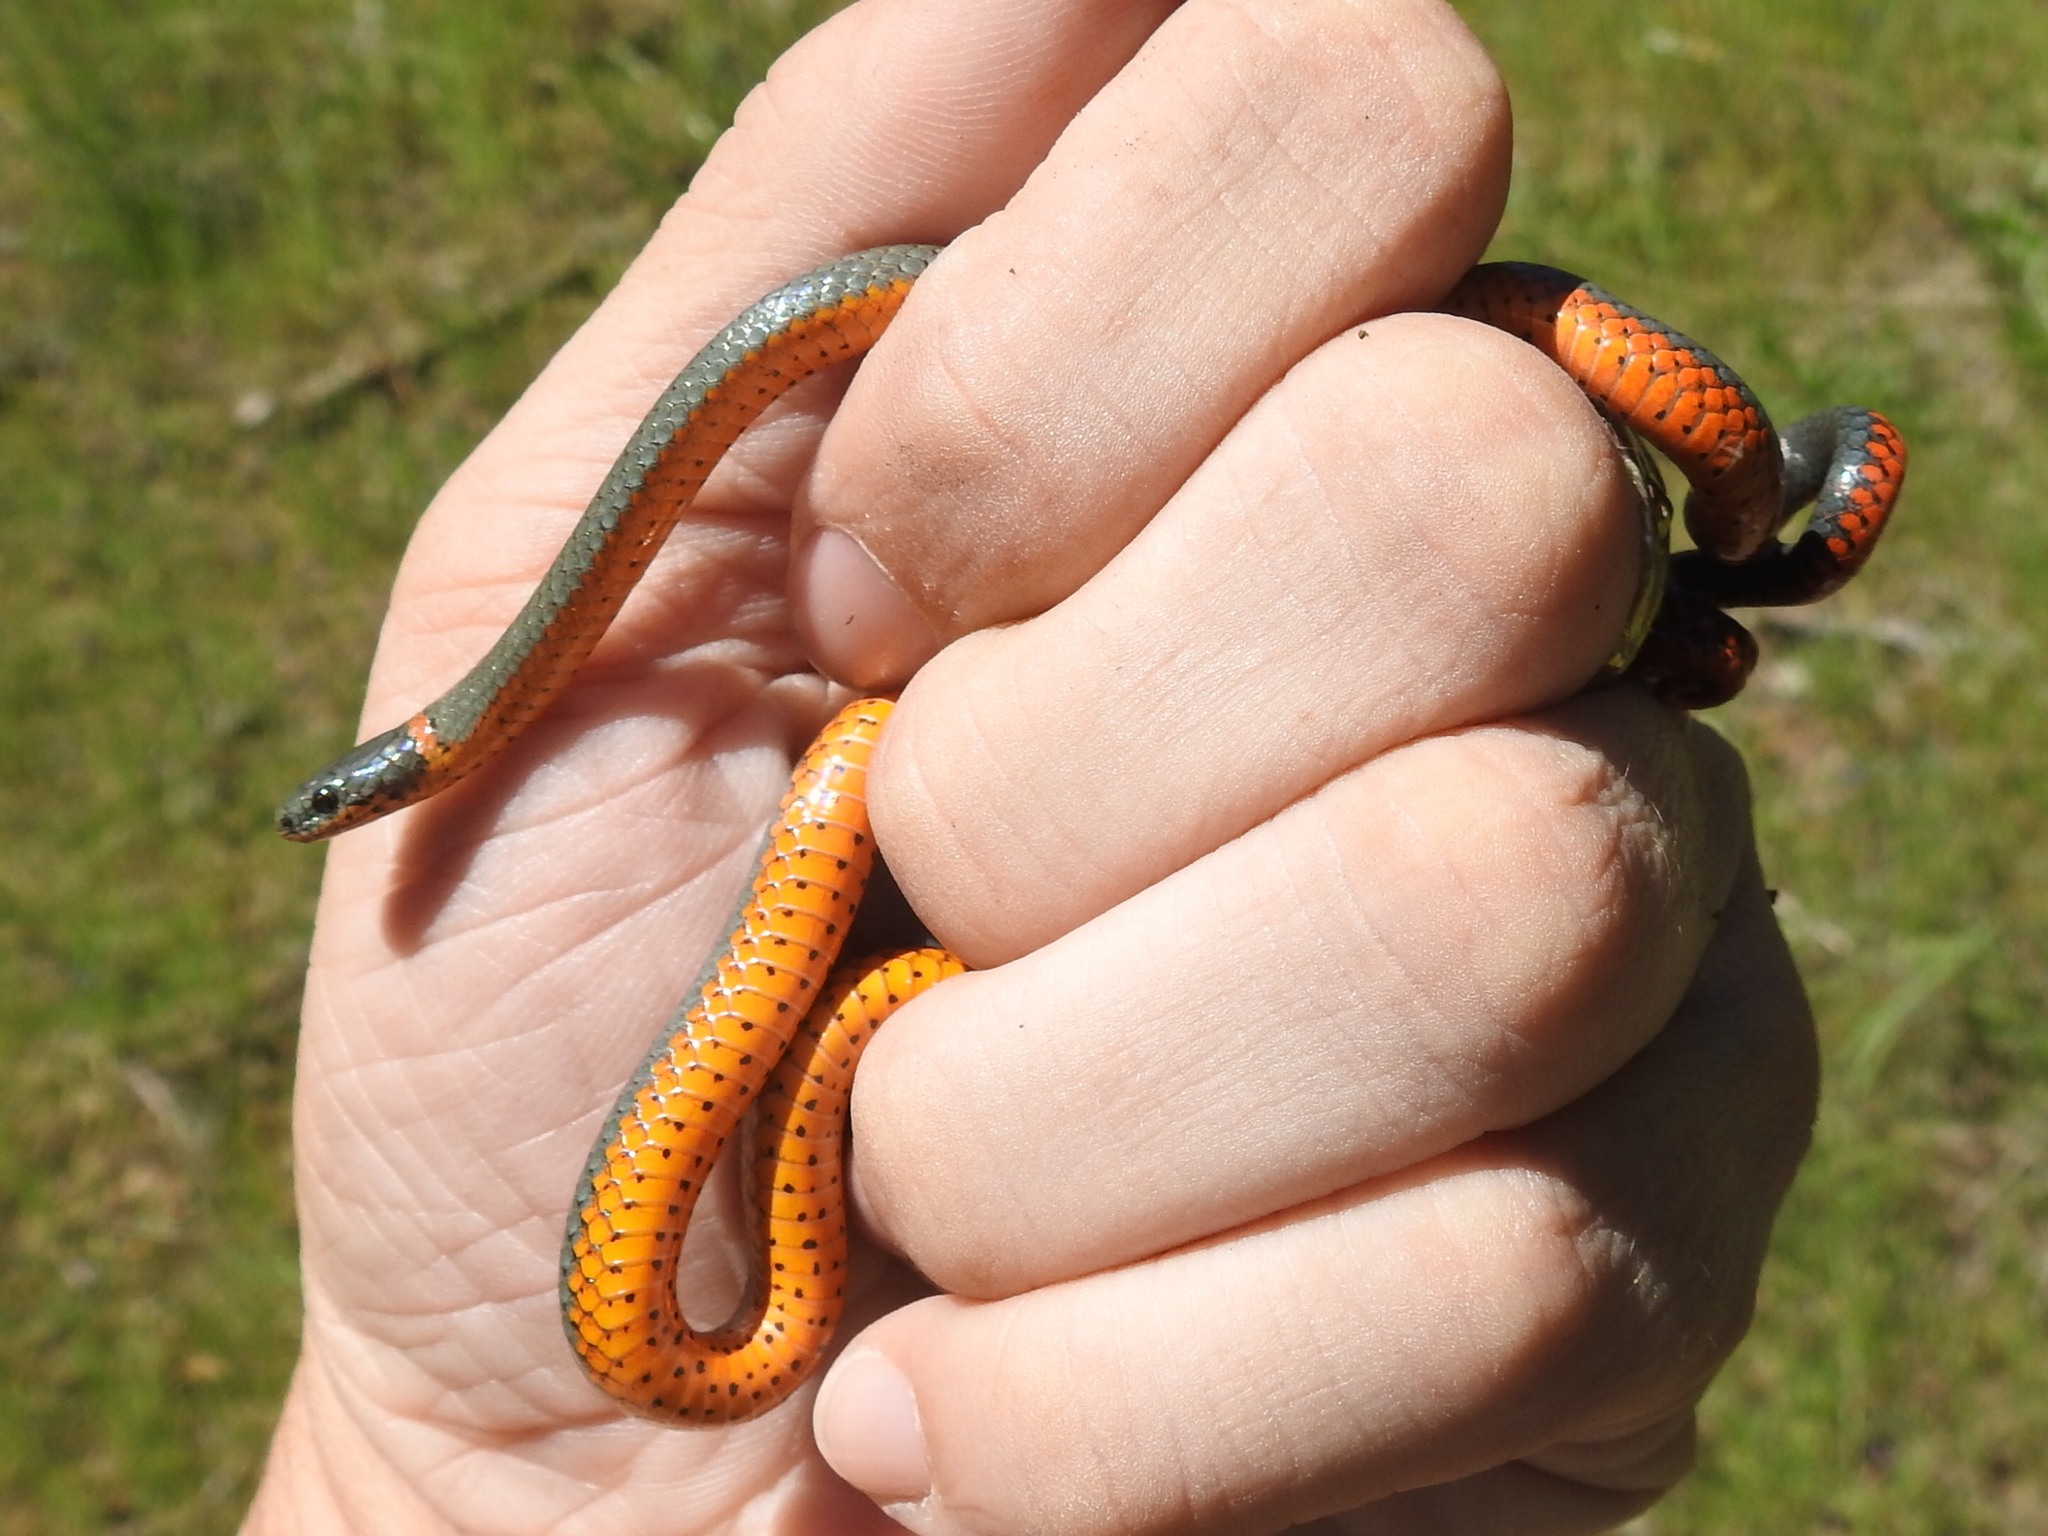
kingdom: Animalia
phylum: Chordata
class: Squamata
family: Colubridae
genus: Diadophis
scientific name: Diadophis punctatus
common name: Ringneck snake
